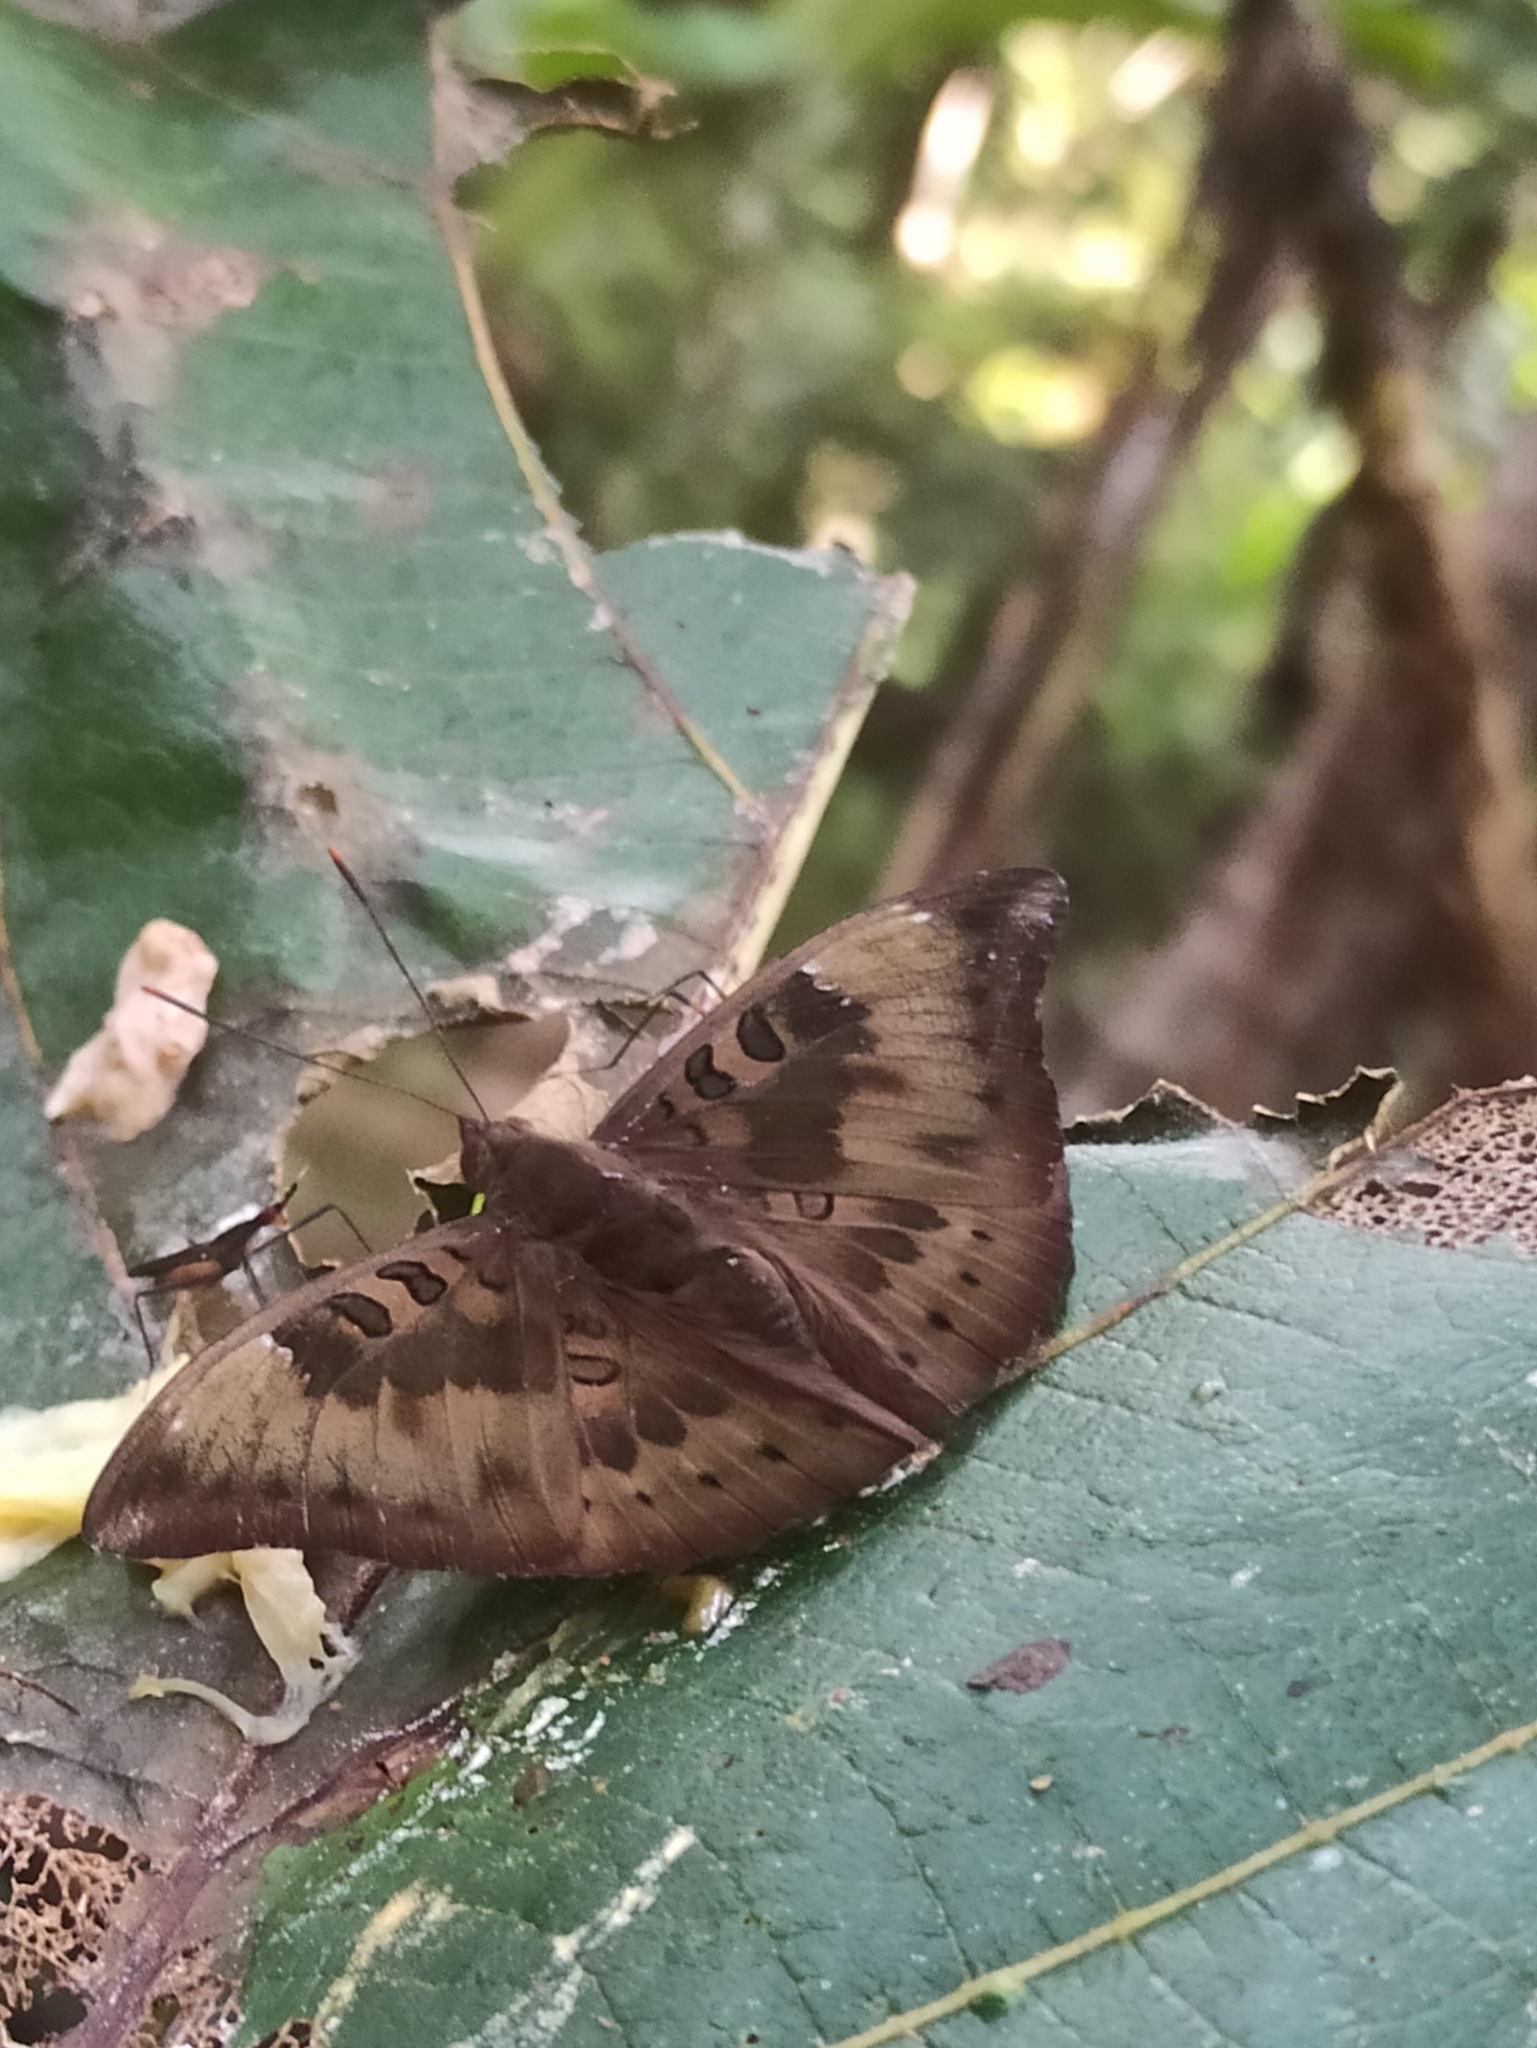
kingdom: Animalia
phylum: Arthropoda
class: Insecta
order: Lepidoptera
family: Nymphalidae
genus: Euthalia
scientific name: Euthalia aconthea
